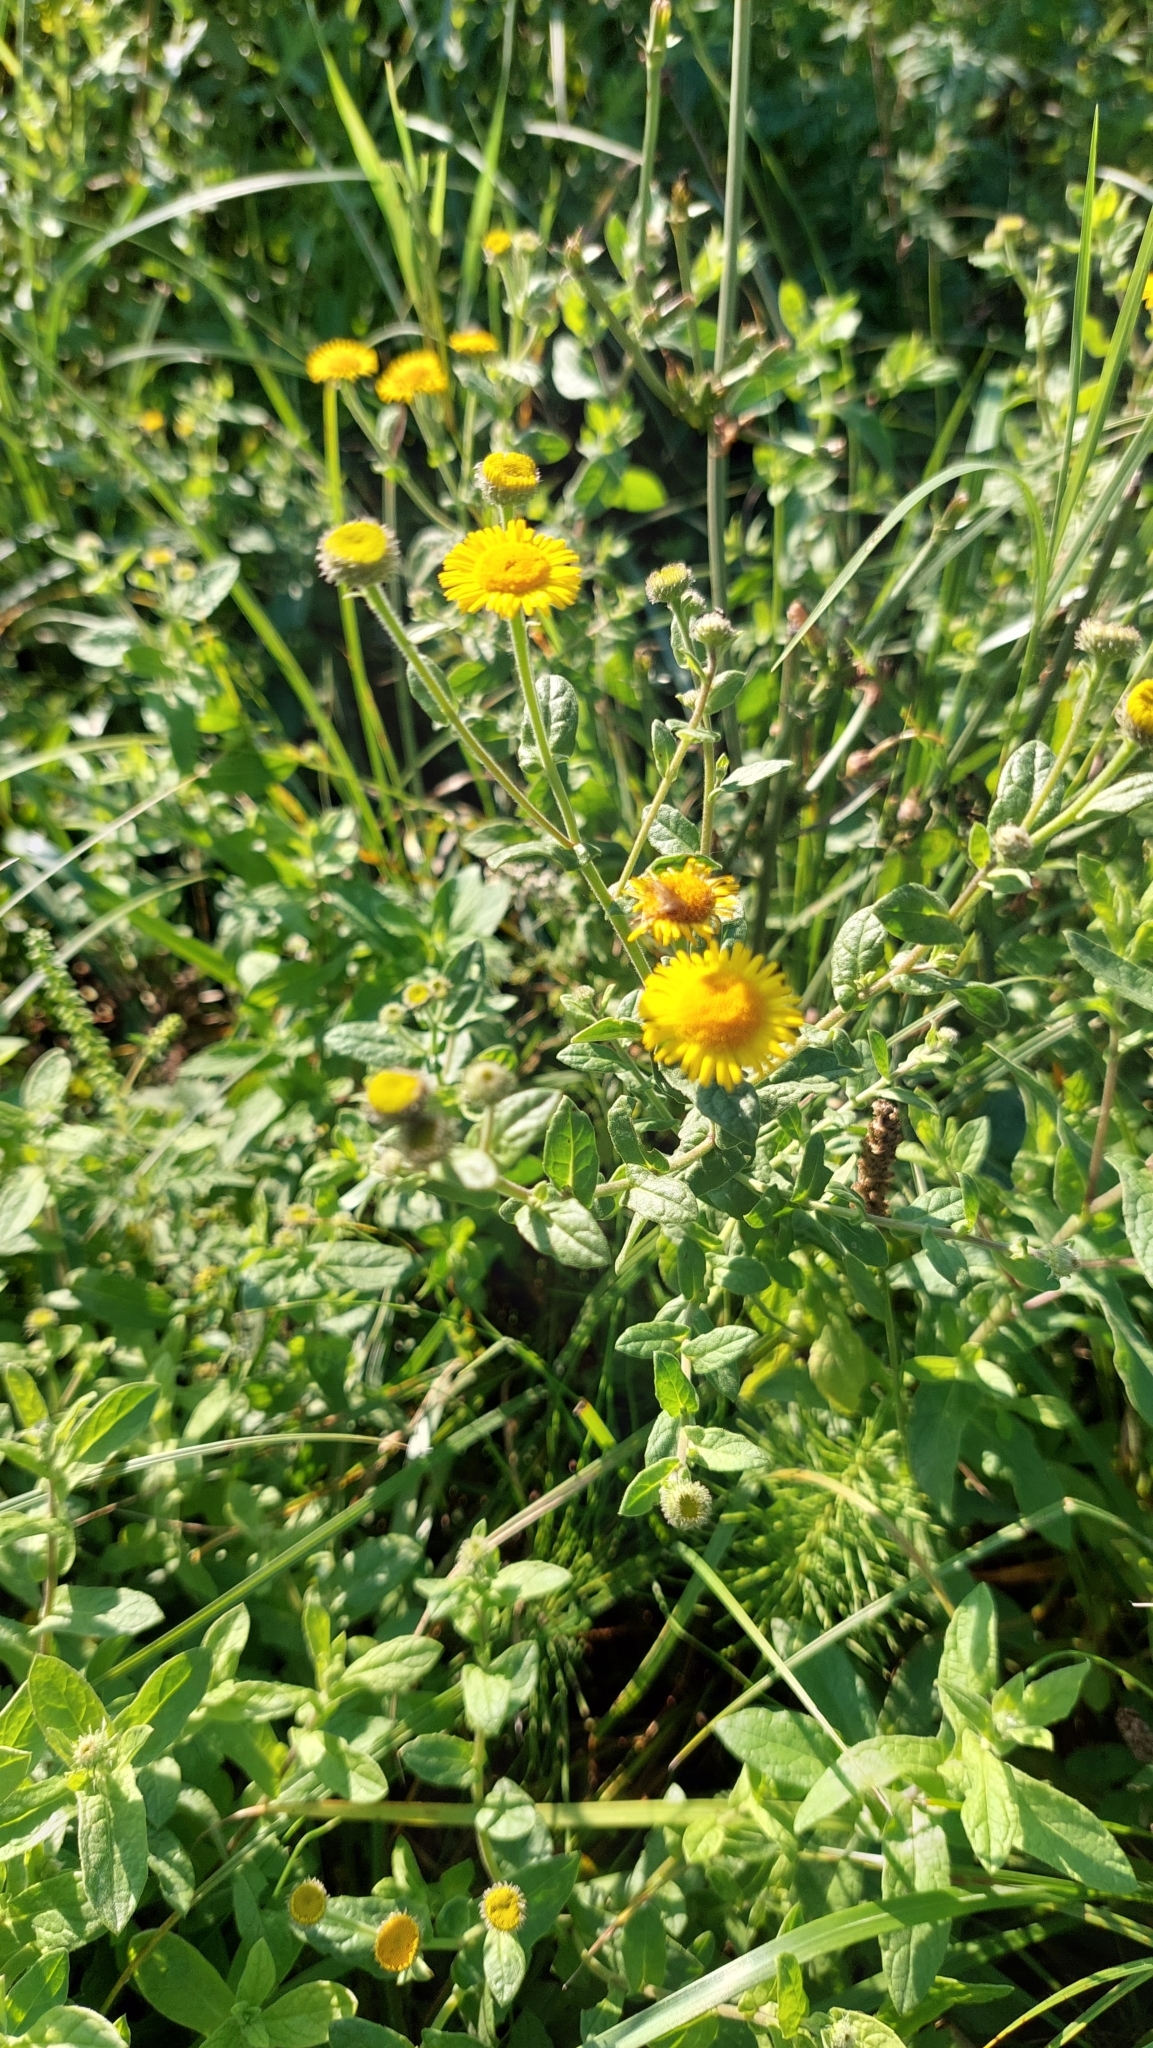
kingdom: Plantae
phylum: Tracheophyta
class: Magnoliopsida
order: Asterales
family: Asteraceae
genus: Pulicaria
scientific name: Pulicaria dysenterica
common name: Common fleabane
